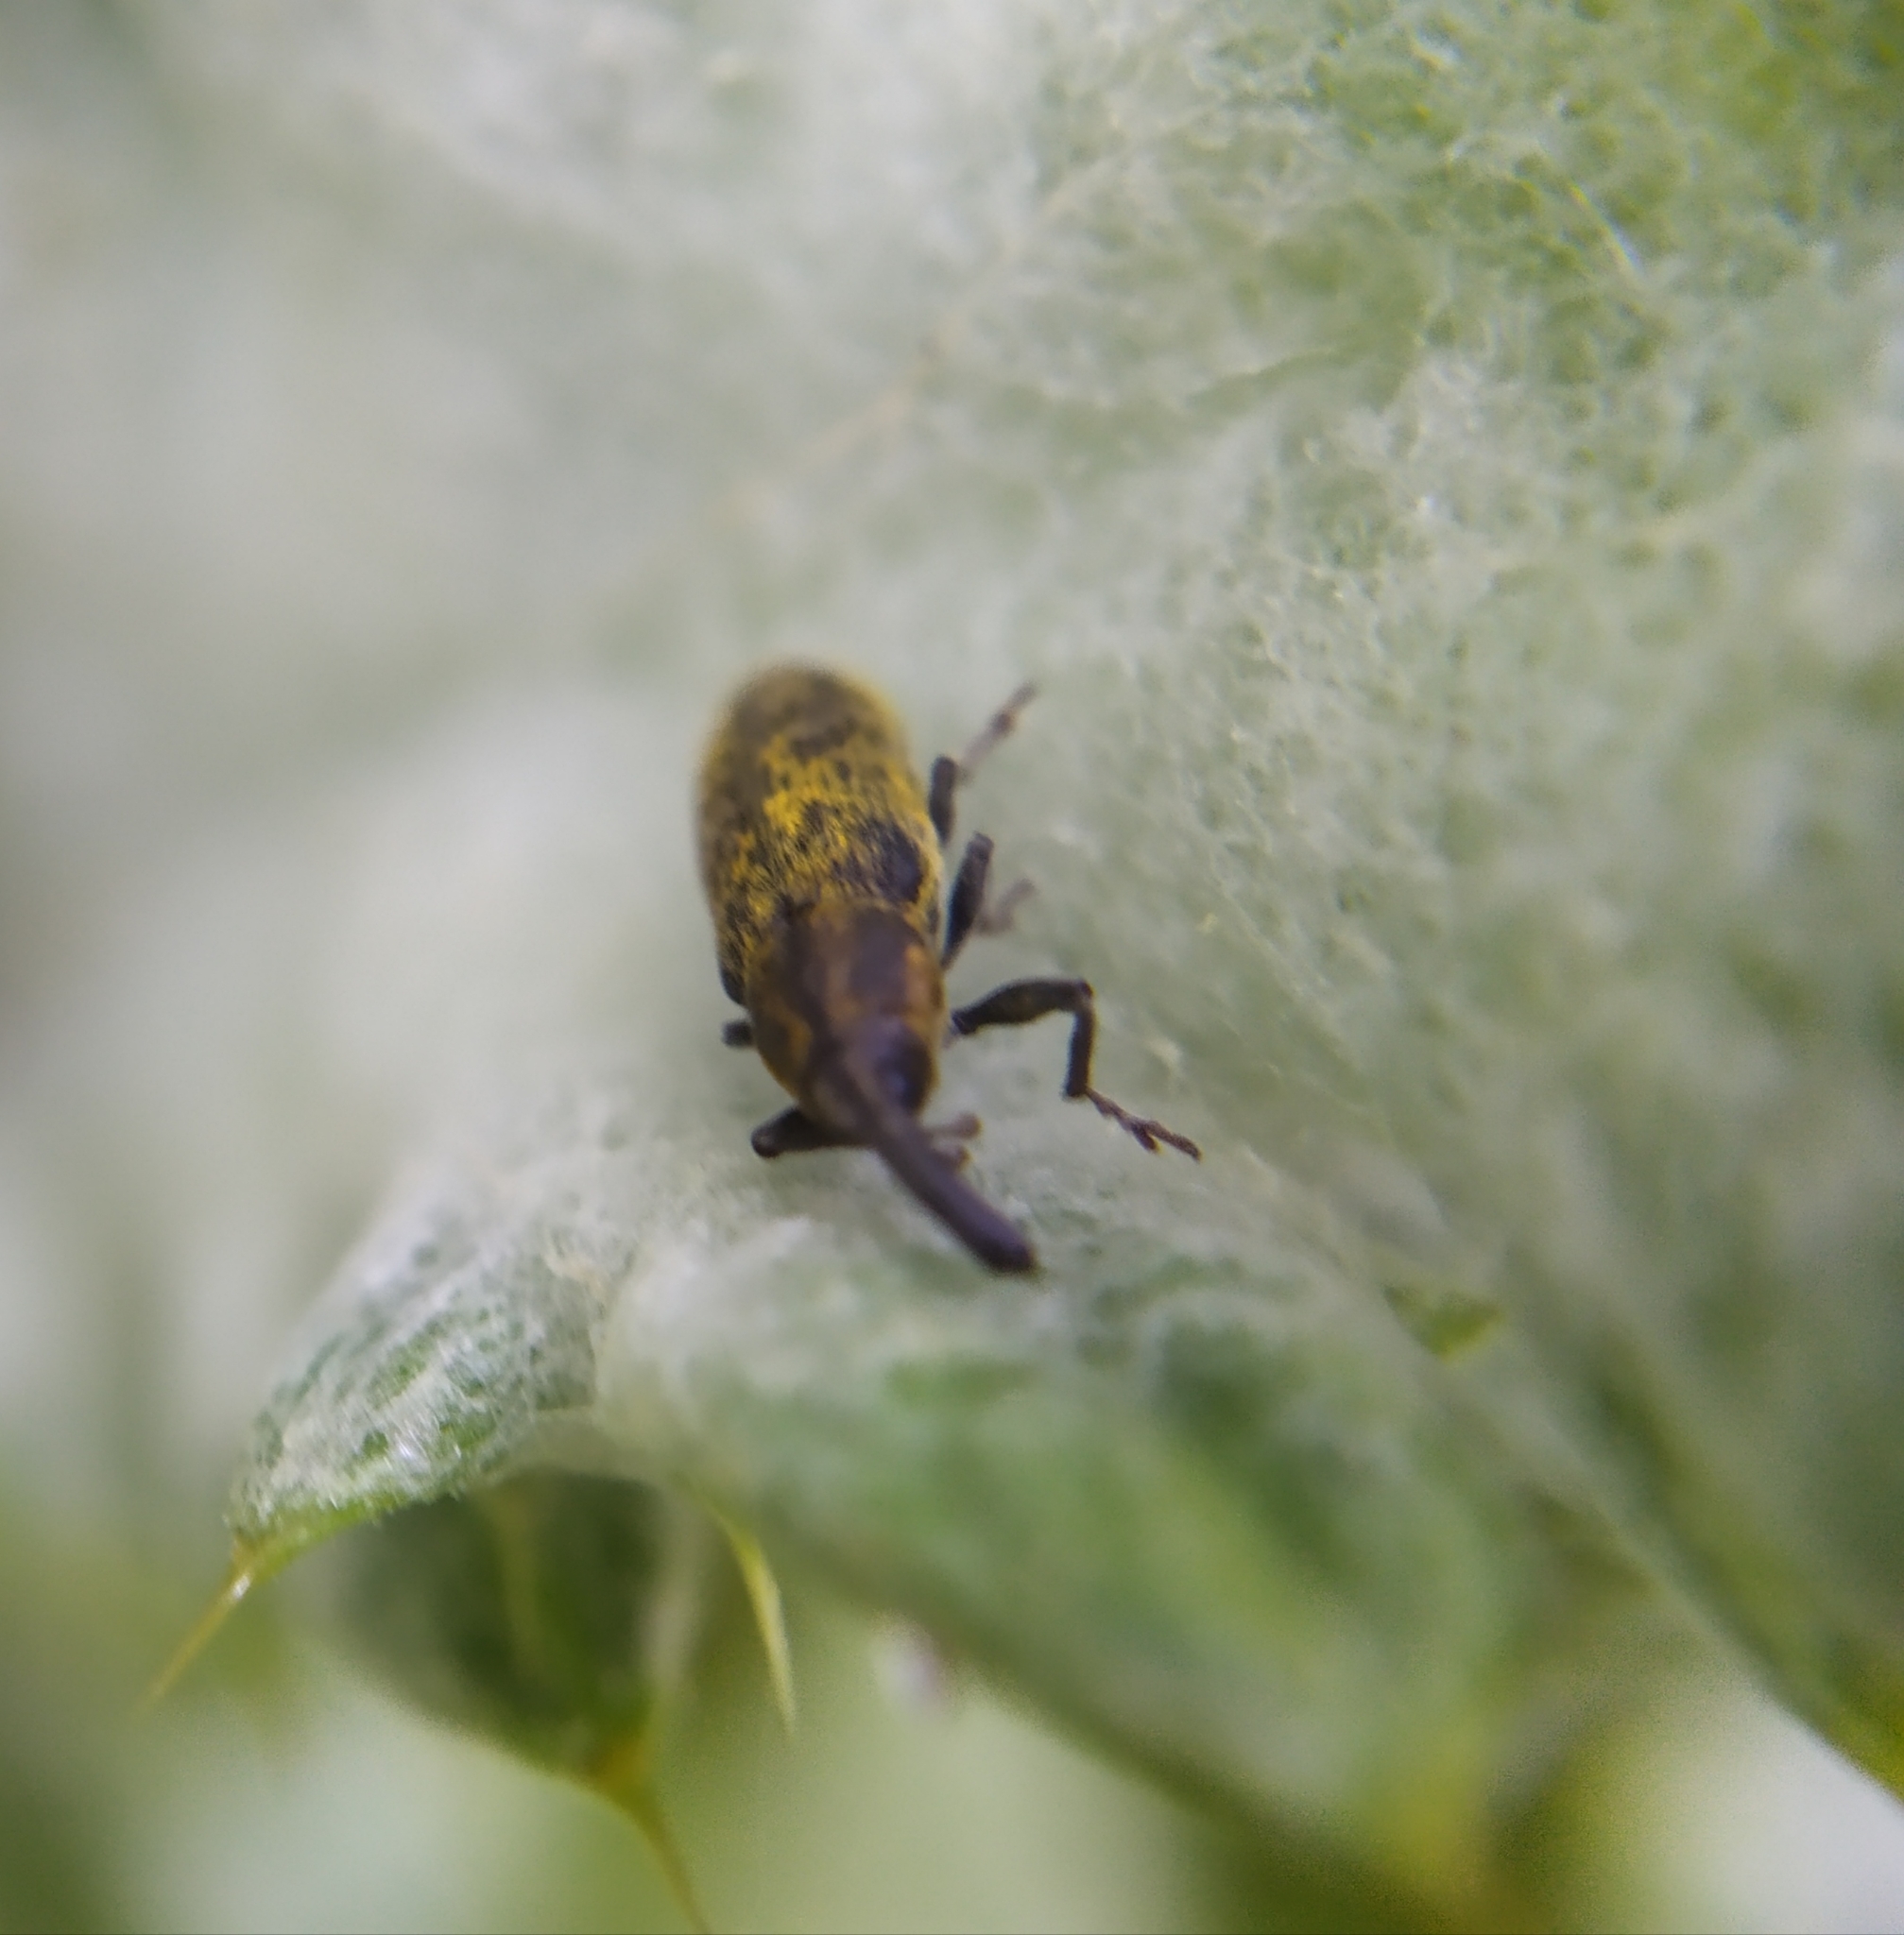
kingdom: Animalia
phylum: Arthropoda
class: Insecta
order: Coleoptera
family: Curculionidae
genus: Lixus
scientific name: Lixus filiformis
